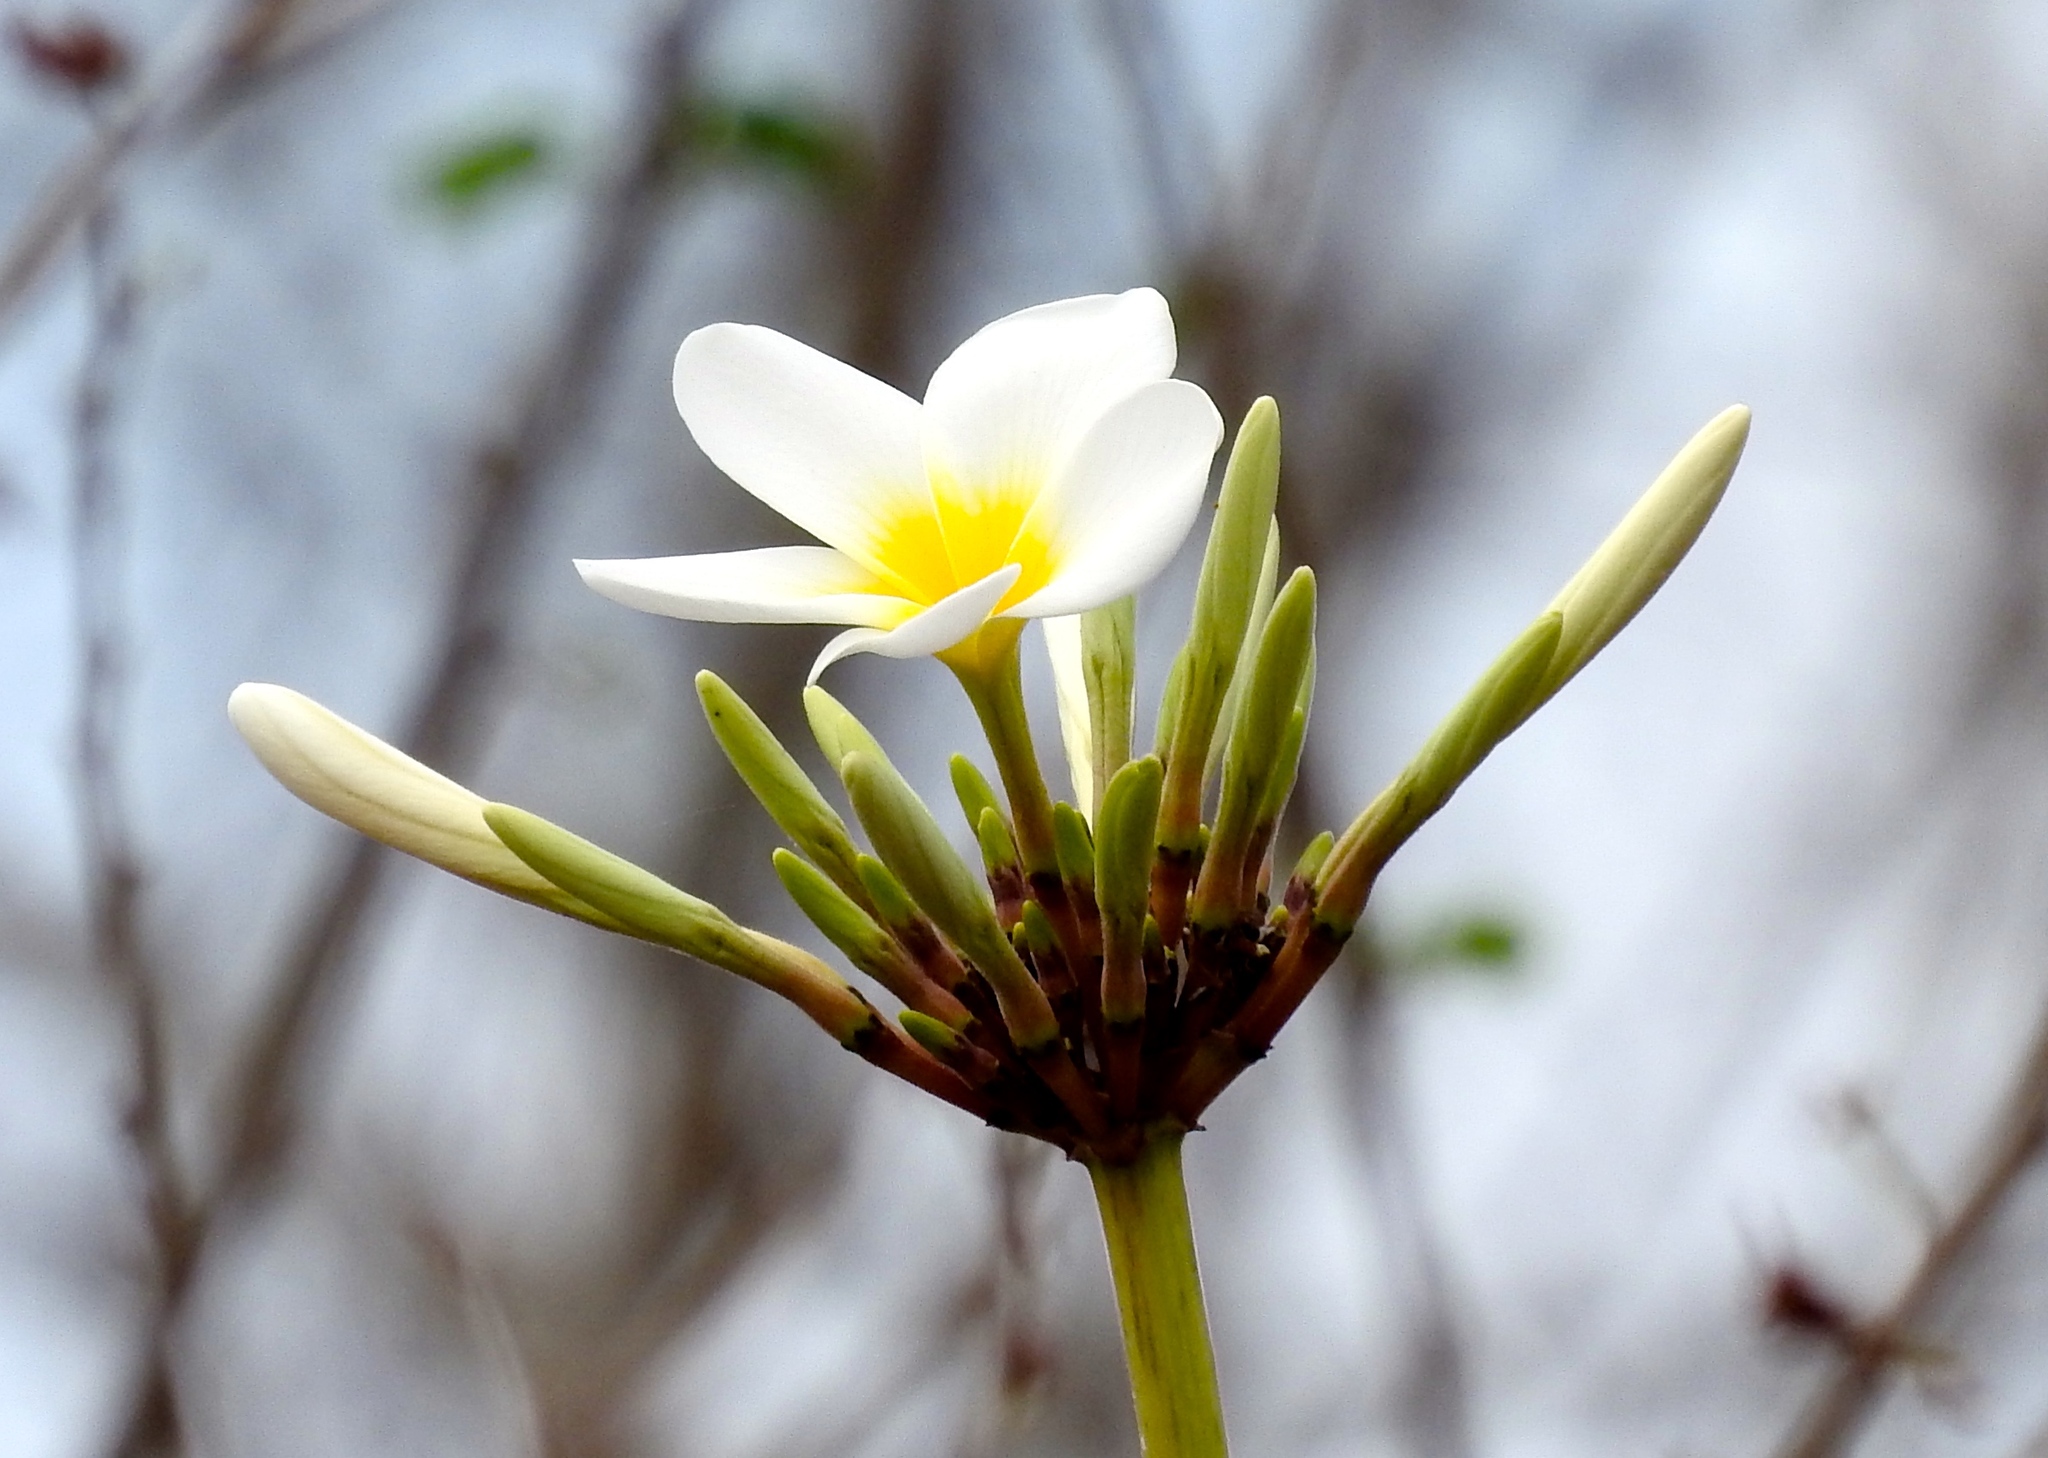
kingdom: Plantae
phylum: Tracheophyta
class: Magnoliopsida
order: Gentianales
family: Apocynaceae
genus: Plumeria
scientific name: Plumeria rubra
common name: Pagoda-tree
